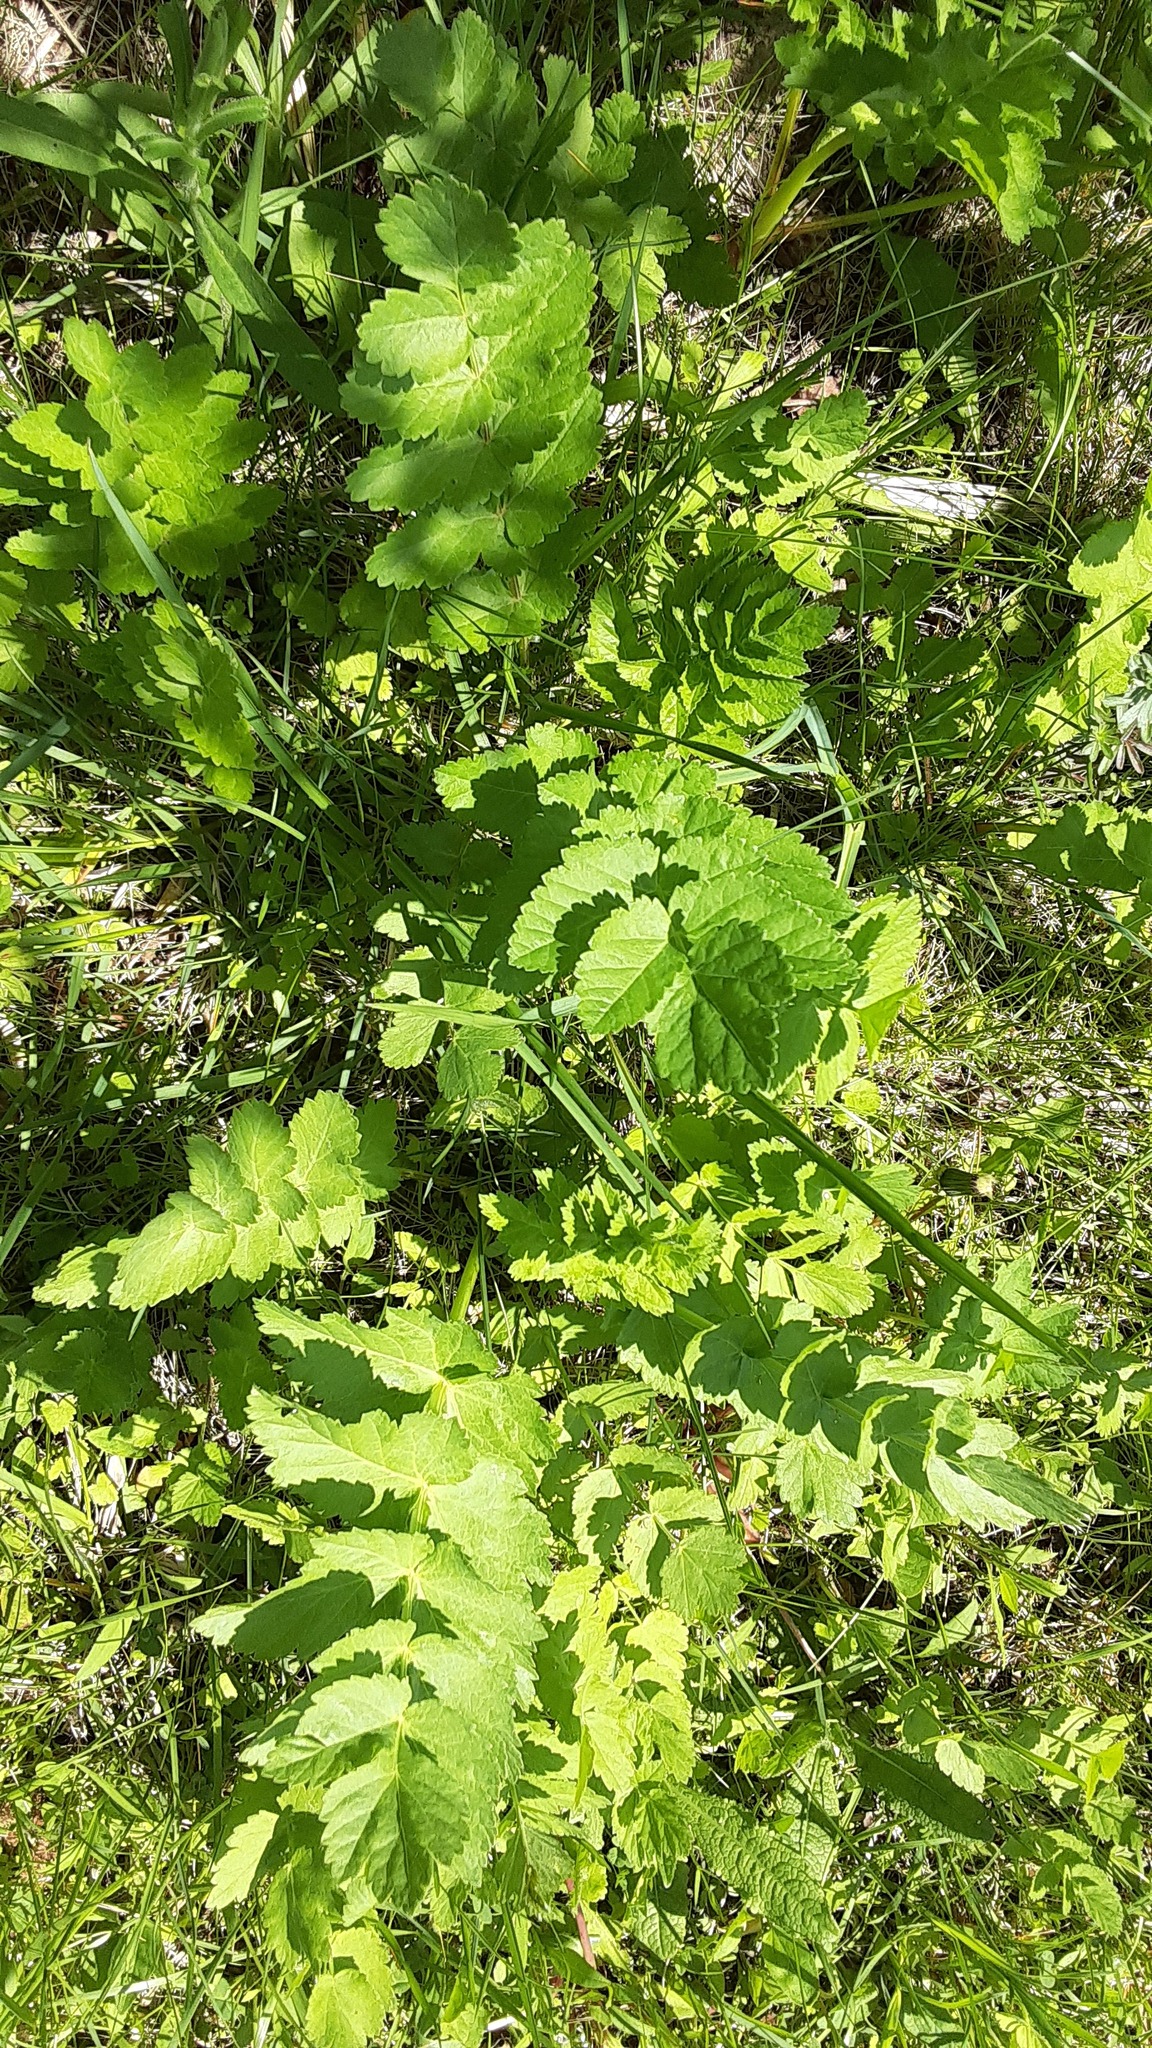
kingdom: Plantae
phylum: Tracheophyta
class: Magnoliopsida
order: Apiales
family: Apiaceae
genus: Pastinaca
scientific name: Pastinaca sativa
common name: Wild parsnip
